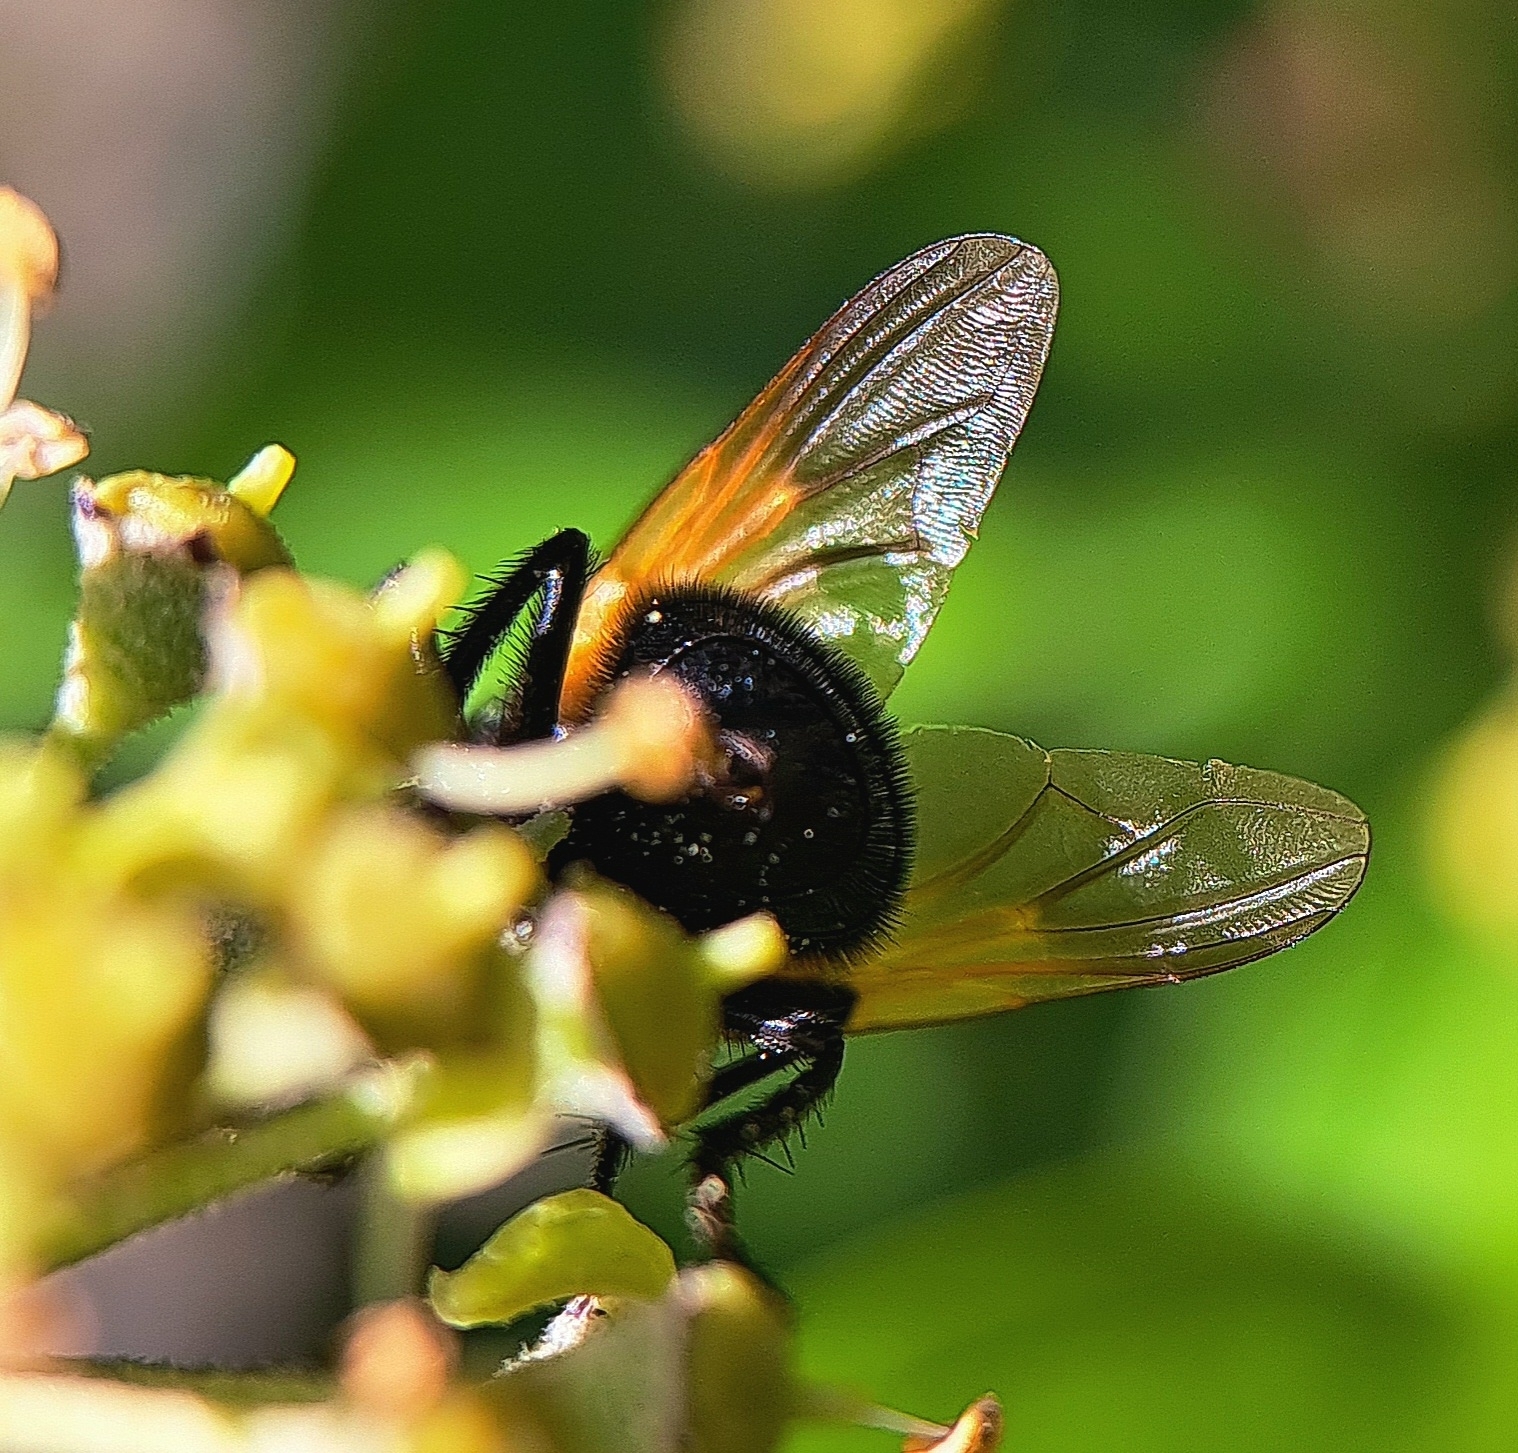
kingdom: Animalia
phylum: Arthropoda
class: Insecta
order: Diptera
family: Muscidae
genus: Mesembrina
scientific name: Mesembrina meridiana
